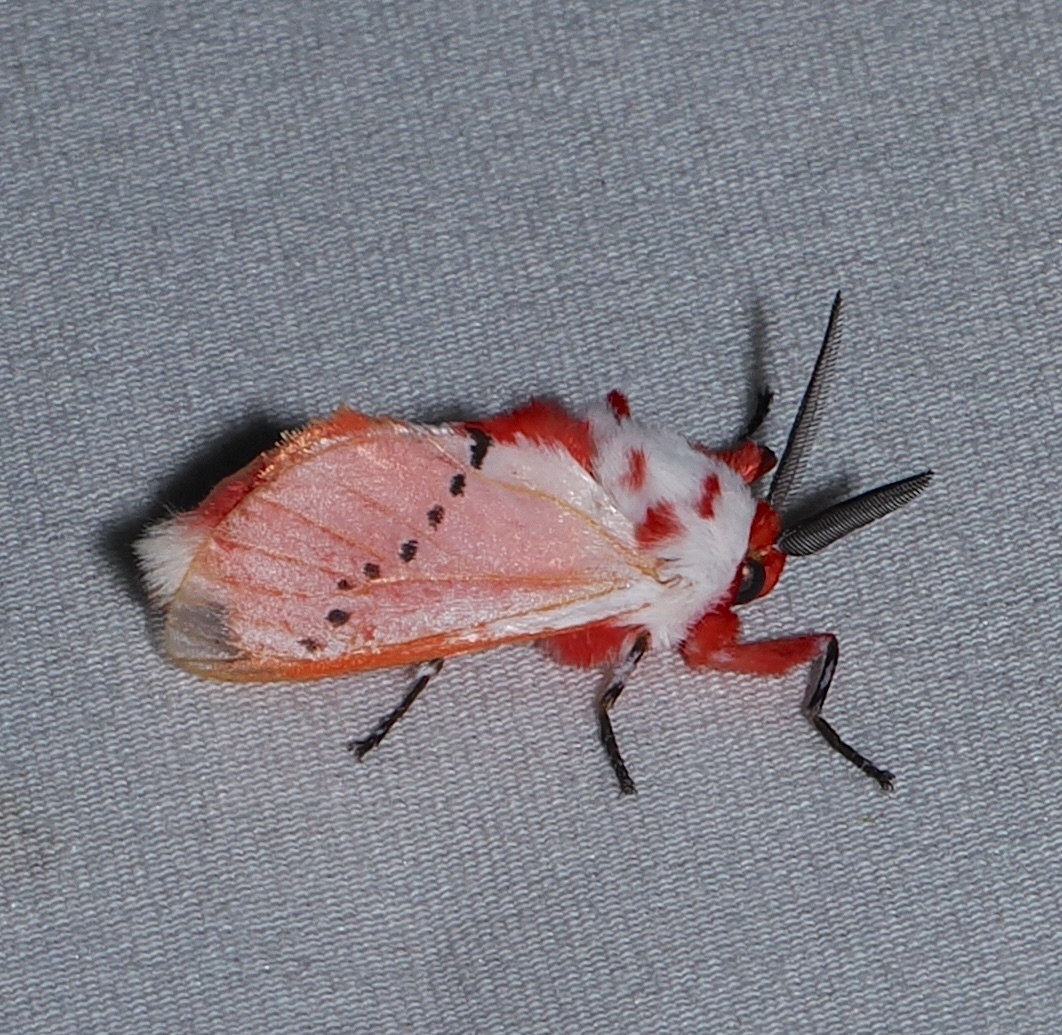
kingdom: Animalia
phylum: Arthropoda
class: Insecta
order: Lepidoptera
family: Megalopygidae
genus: Trosia
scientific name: Trosia misda
